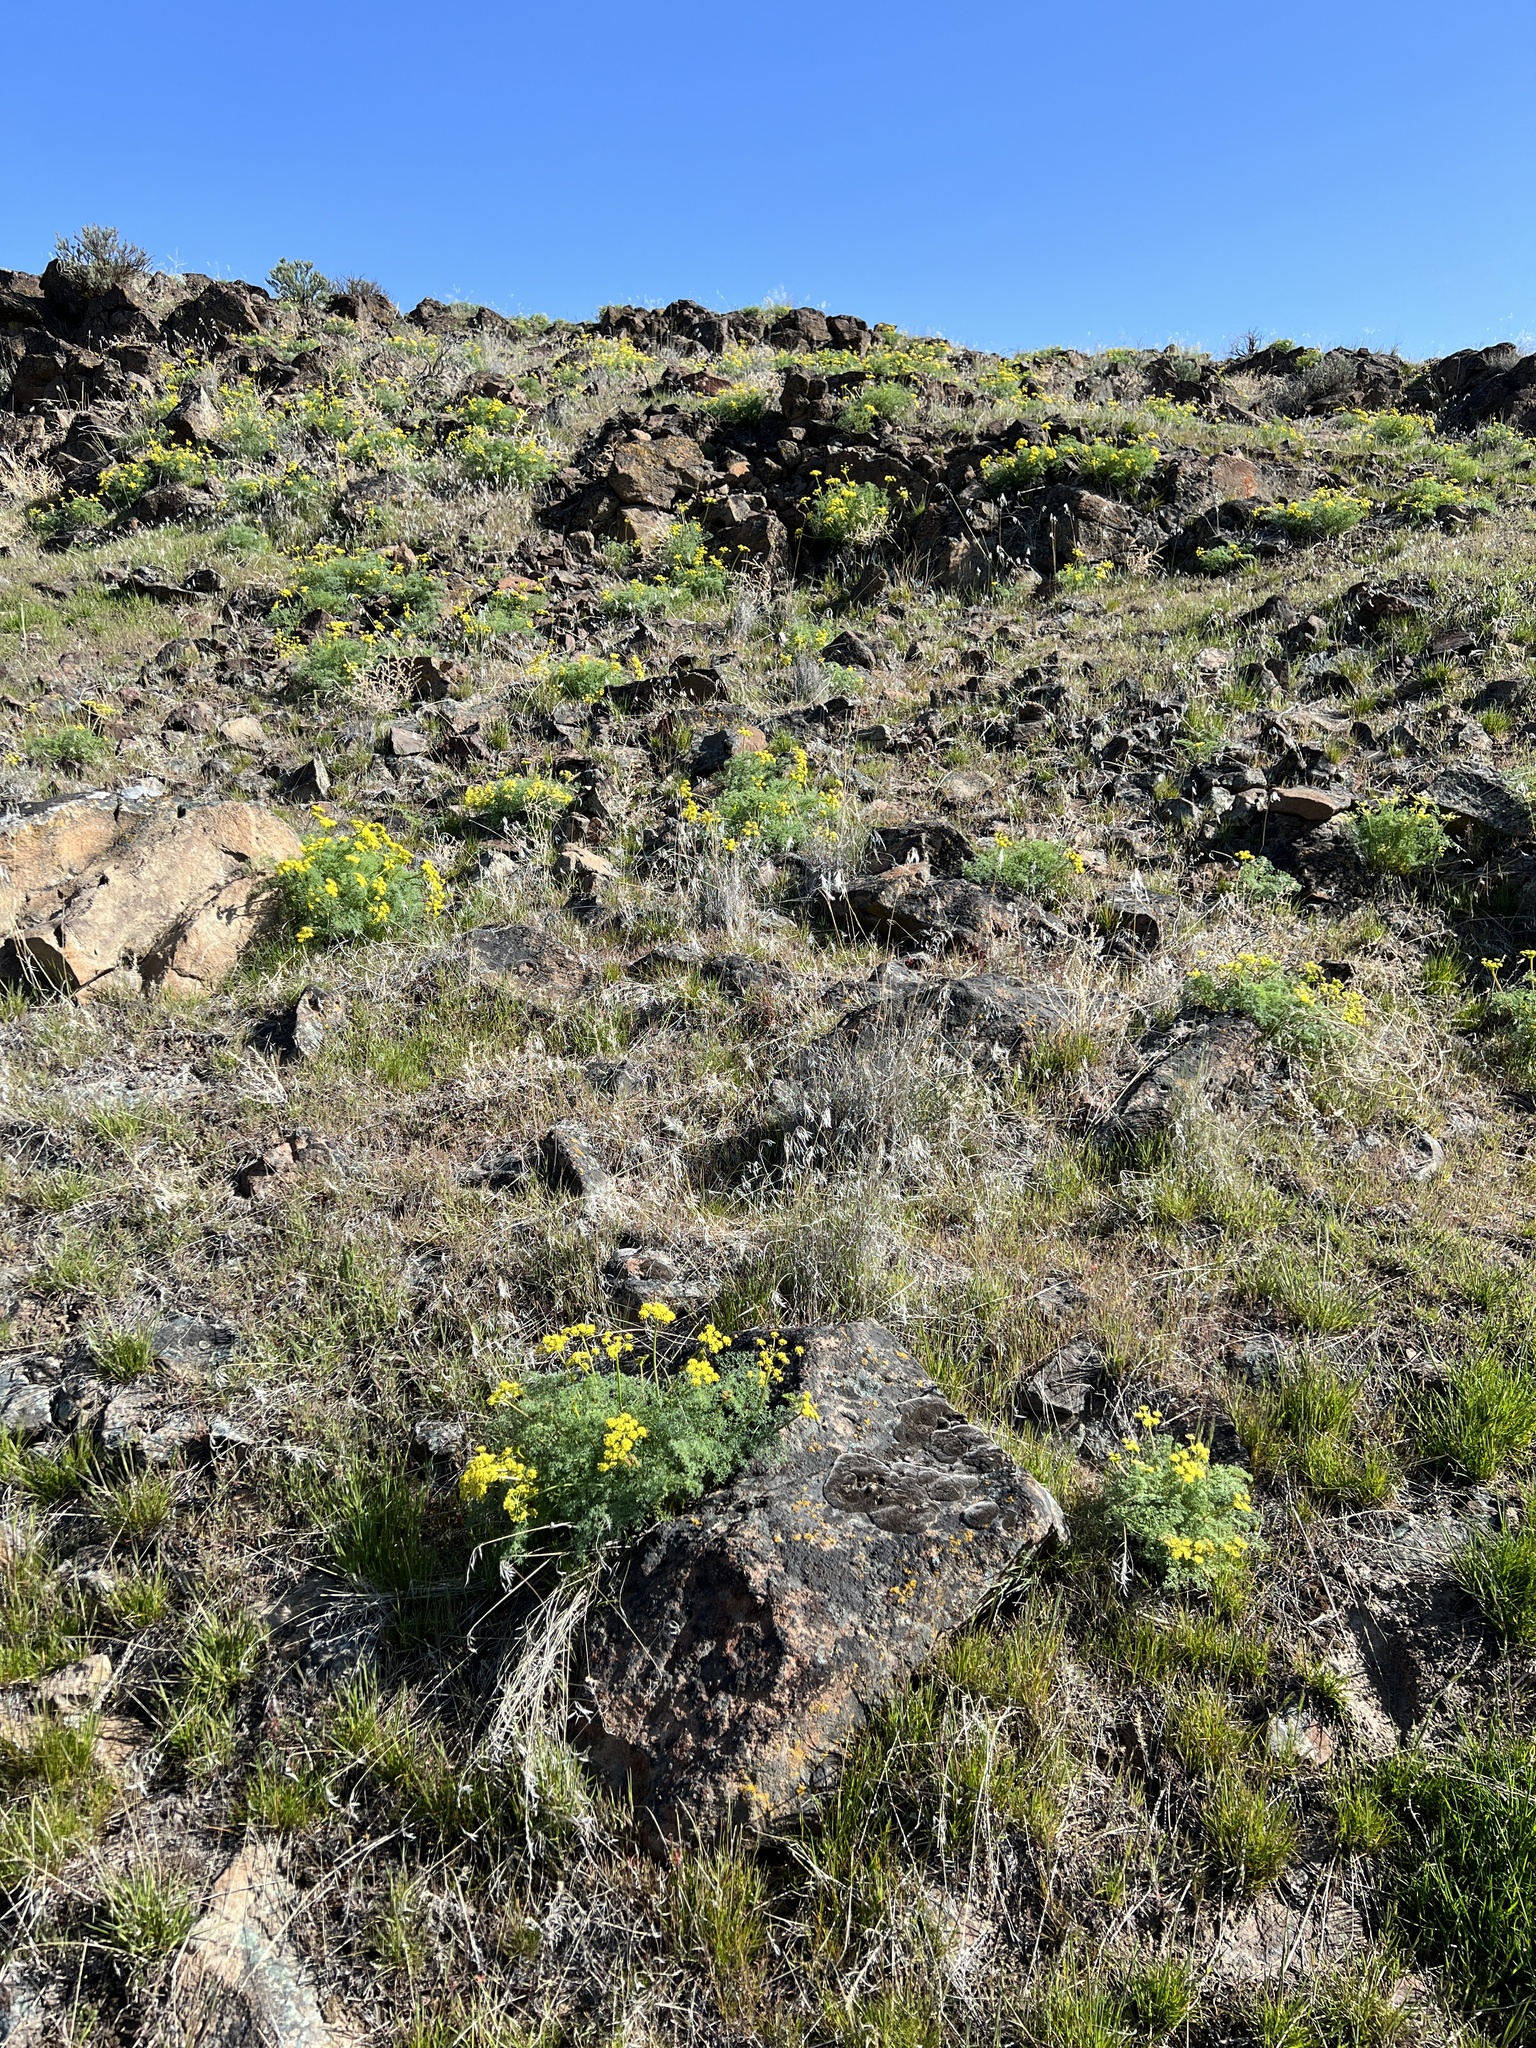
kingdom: Plantae
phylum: Tracheophyta
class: Magnoliopsida
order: Apiales
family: Apiaceae
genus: Lomatium
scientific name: Lomatium papilioniferum
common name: Butterfly lomatium
